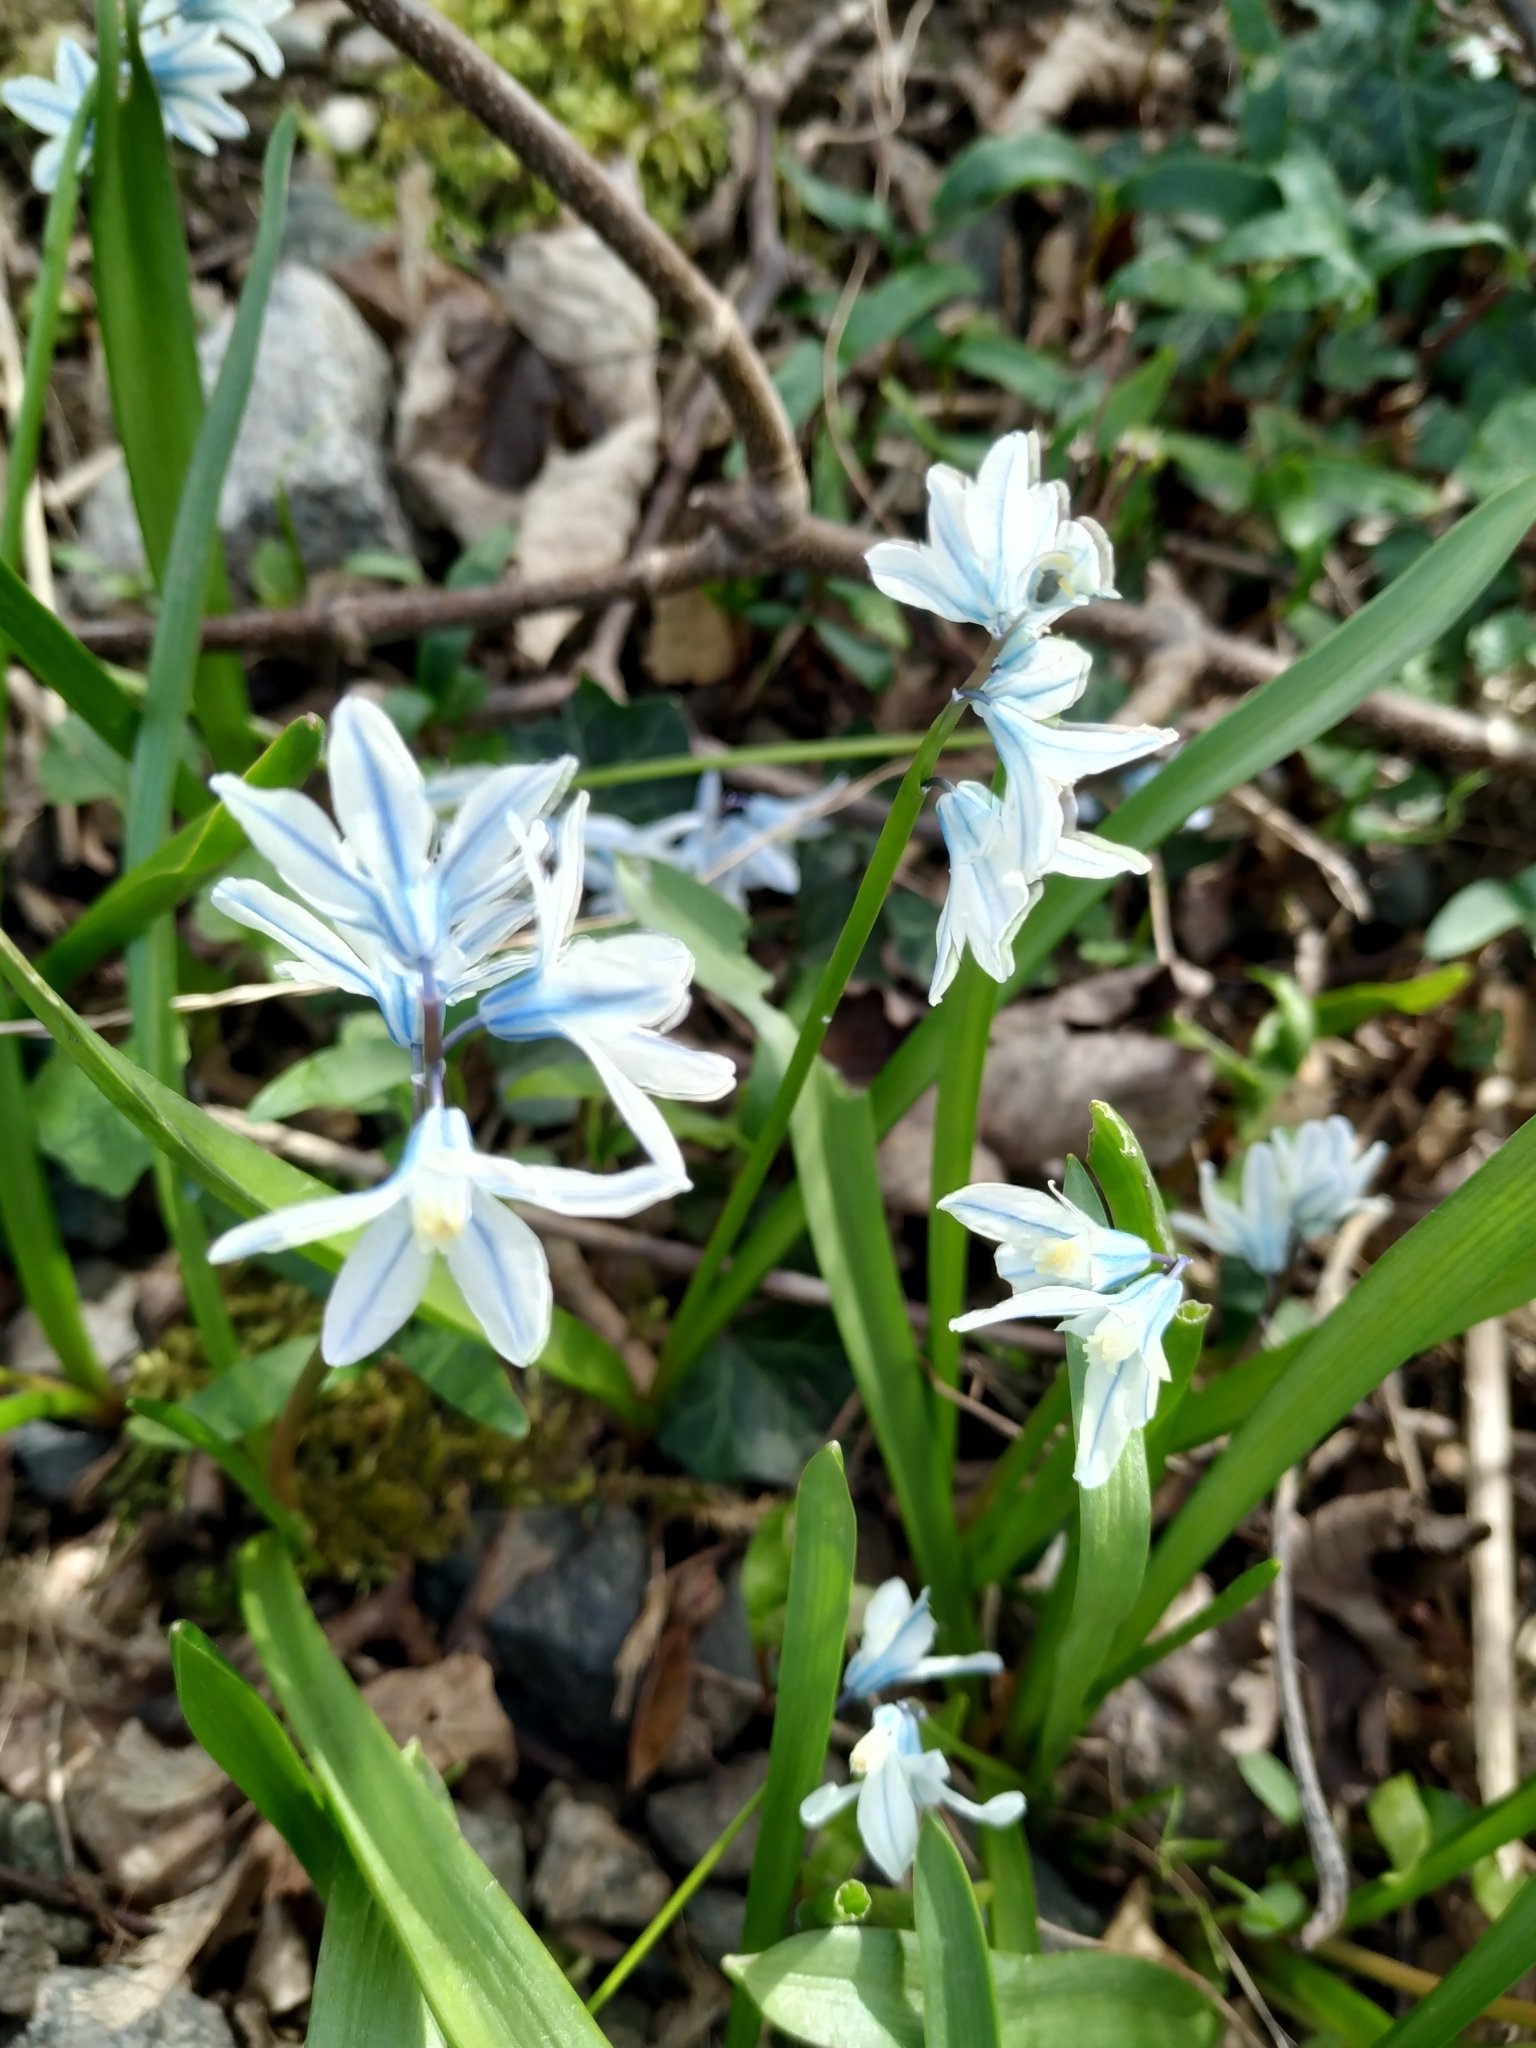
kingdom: Plantae
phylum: Tracheophyta
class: Liliopsida
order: Asparagales
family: Asparagaceae
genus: Puschkinia
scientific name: Puschkinia scilloides
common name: Striped squill
